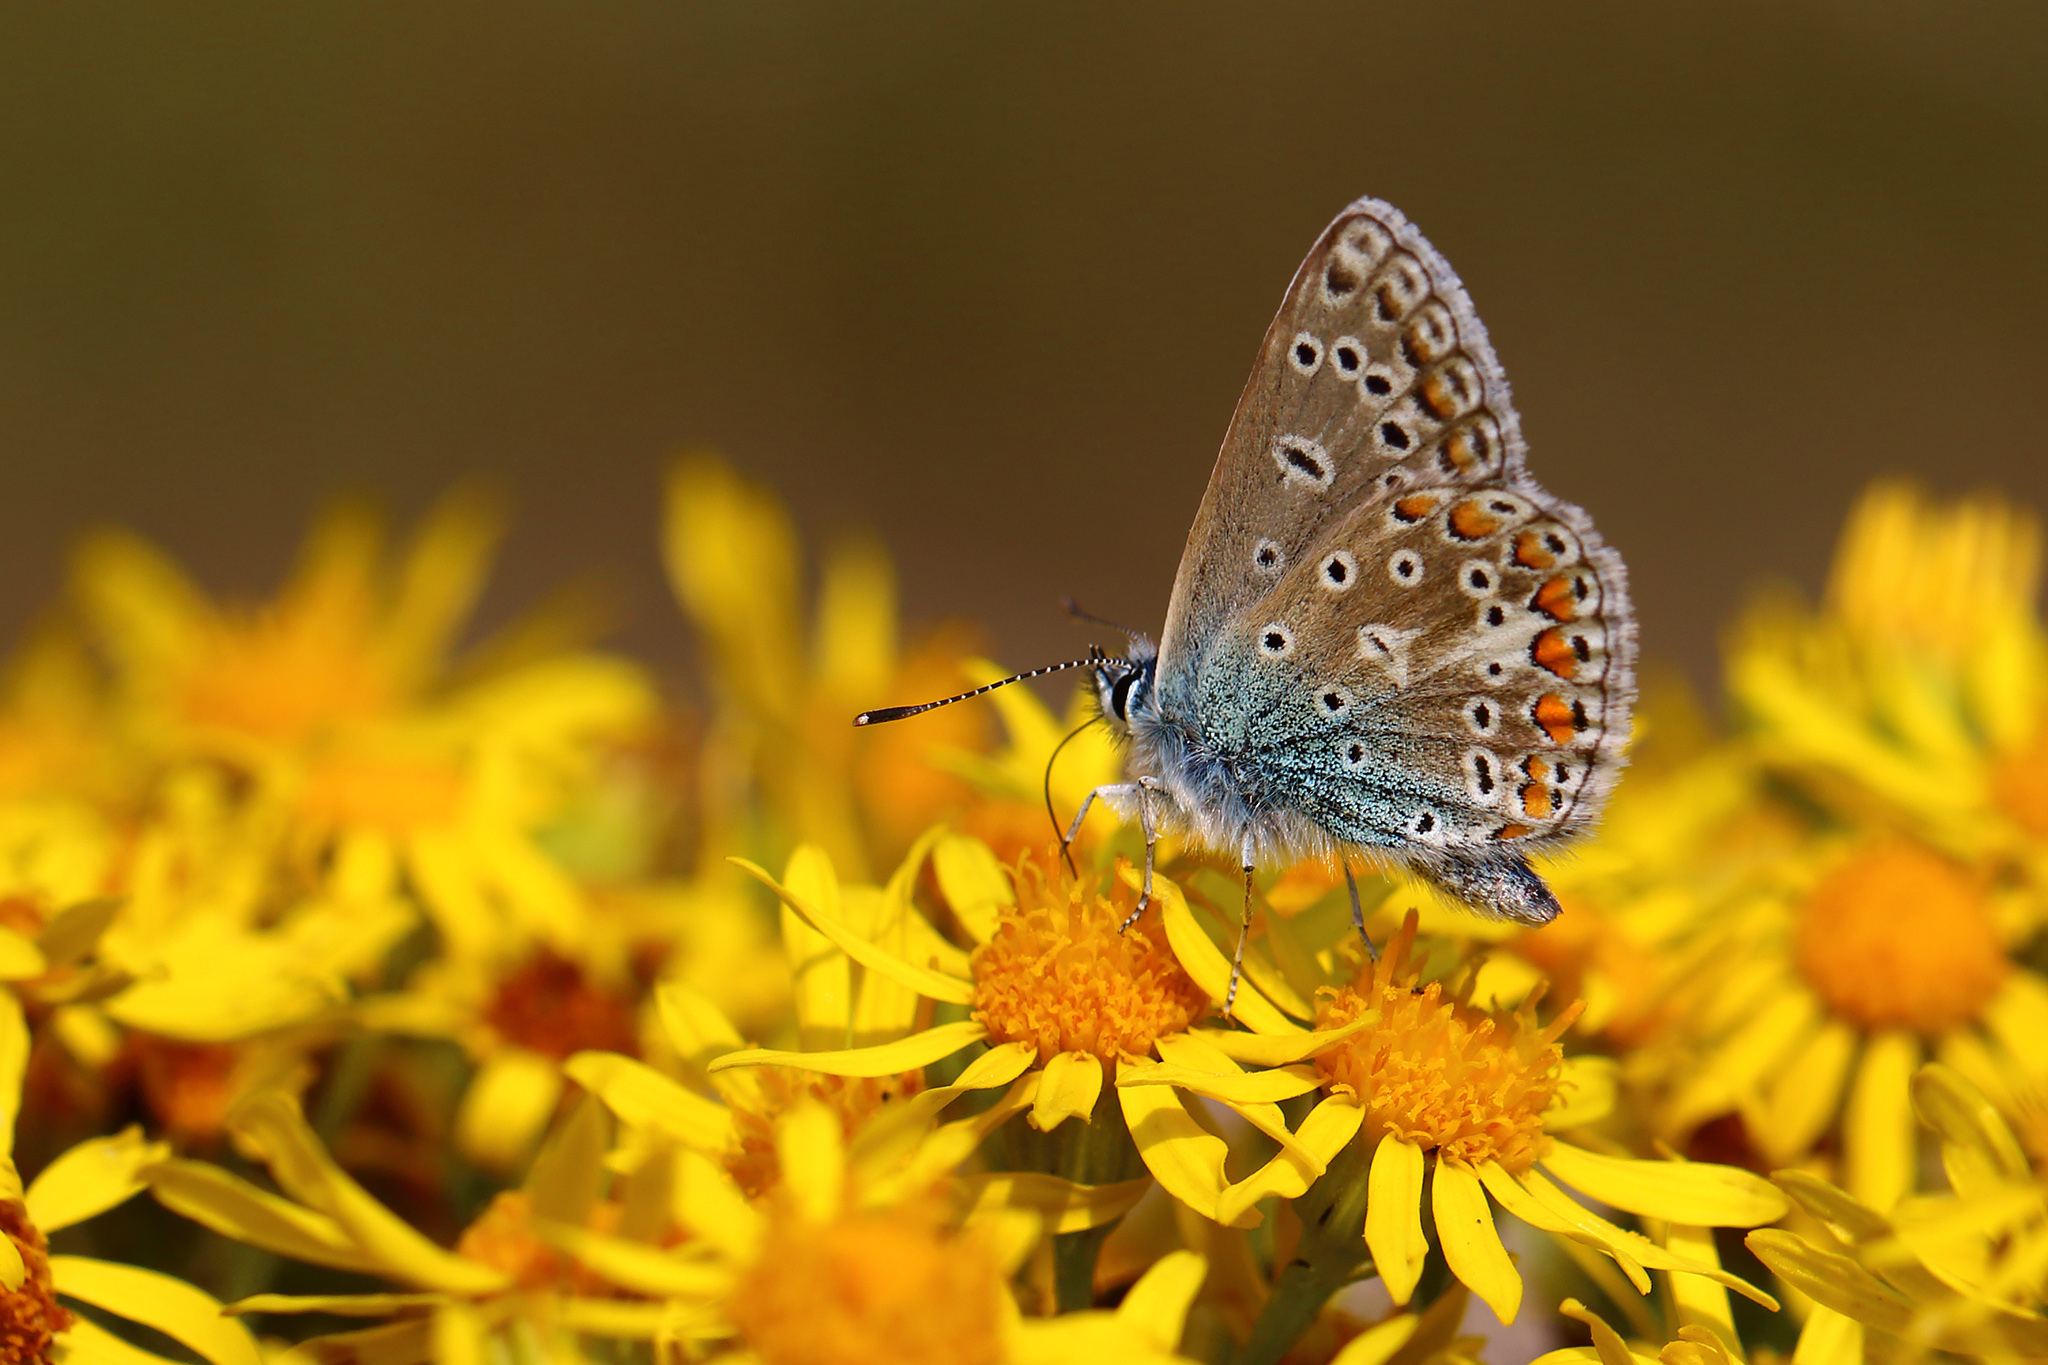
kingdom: Animalia
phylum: Arthropoda
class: Insecta
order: Lepidoptera
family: Lycaenidae
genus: Polyommatus
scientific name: Polyommatus icarus
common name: Common blue
